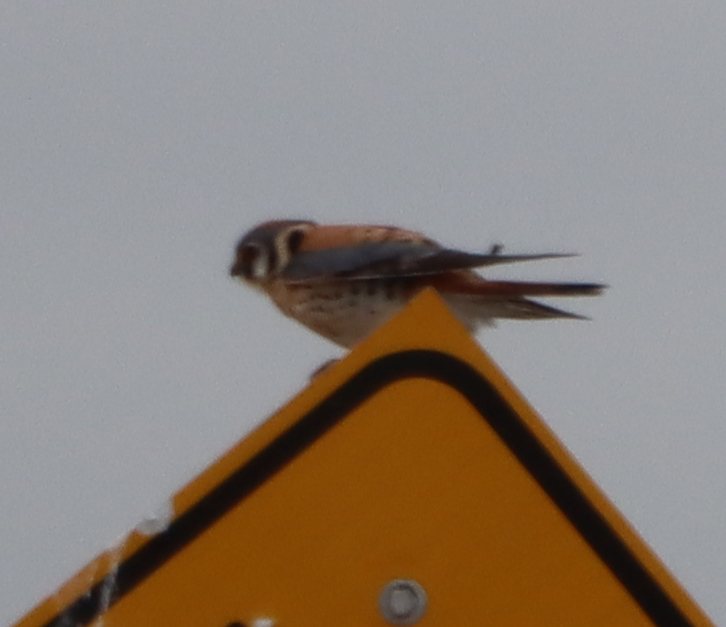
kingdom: Animalia
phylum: Chordata
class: Aves
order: Falconiformes
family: Falconidae
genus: Falco
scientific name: Falco sparverius
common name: American kestrel
